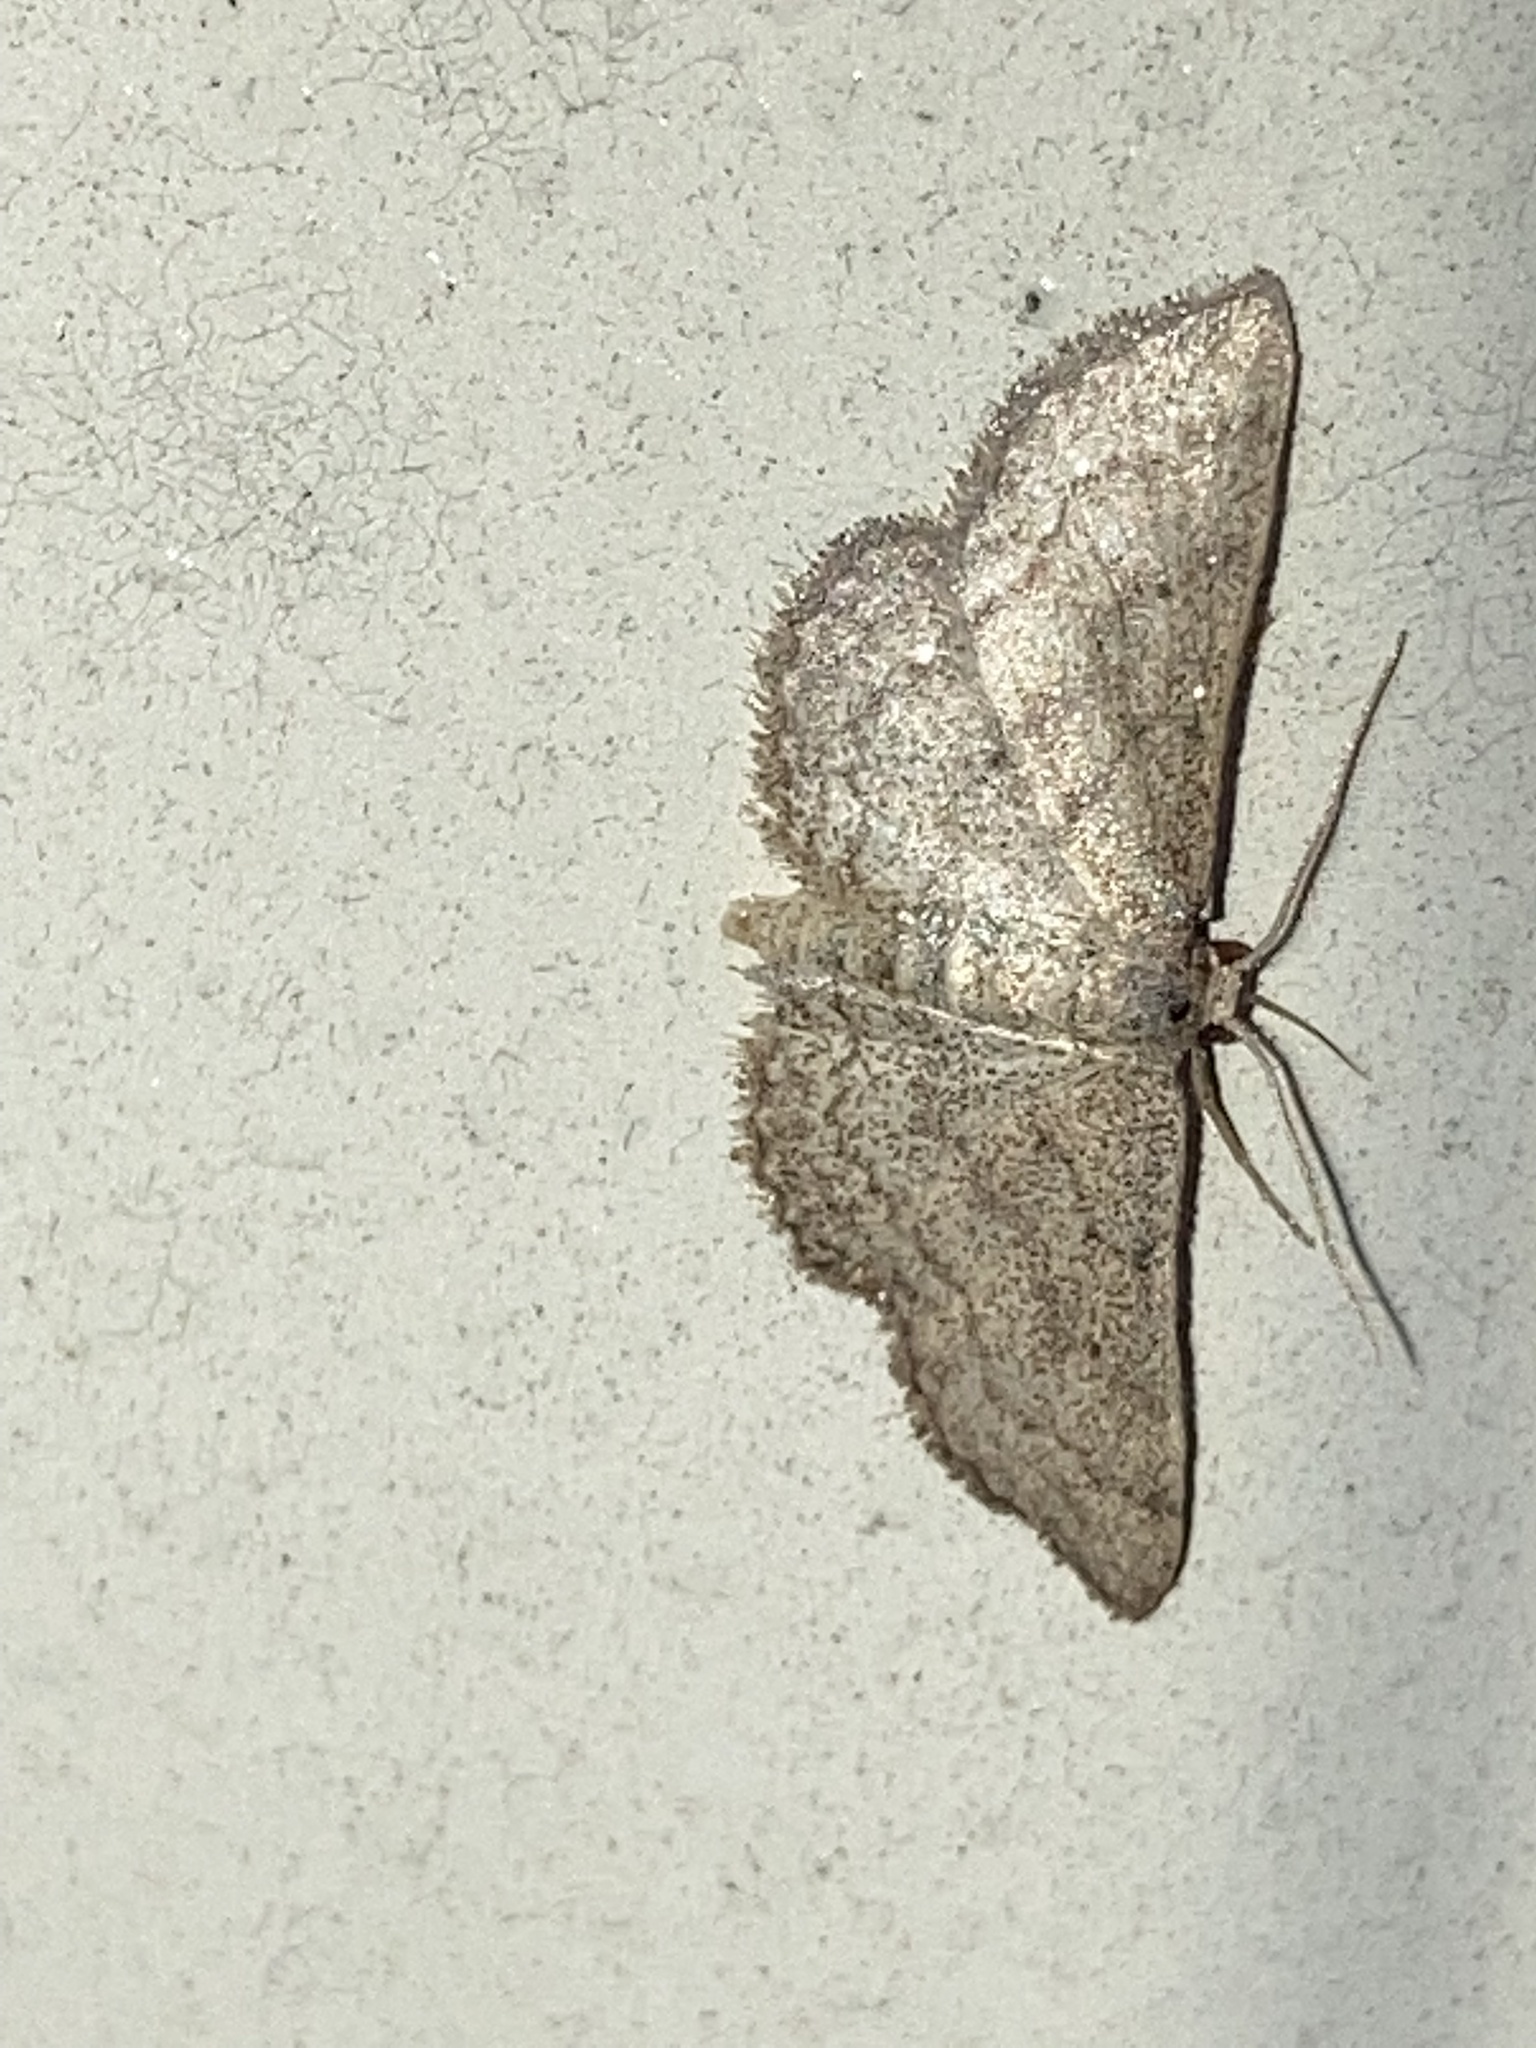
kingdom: Animalia
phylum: Arthropoda
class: Insecta
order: Lepidoptera
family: Geometridae
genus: Lobocleta
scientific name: Lobocleta ossularia
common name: Drab brown wave
